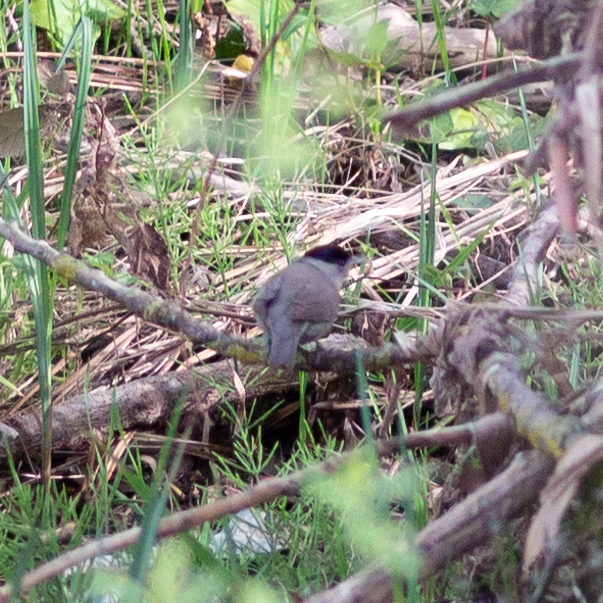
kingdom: Animalia
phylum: Chordata
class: Aves
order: Passeriformes
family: Sylviidae
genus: Sylvia
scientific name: Sylvia atricapilla
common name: Eurasian blackcap
